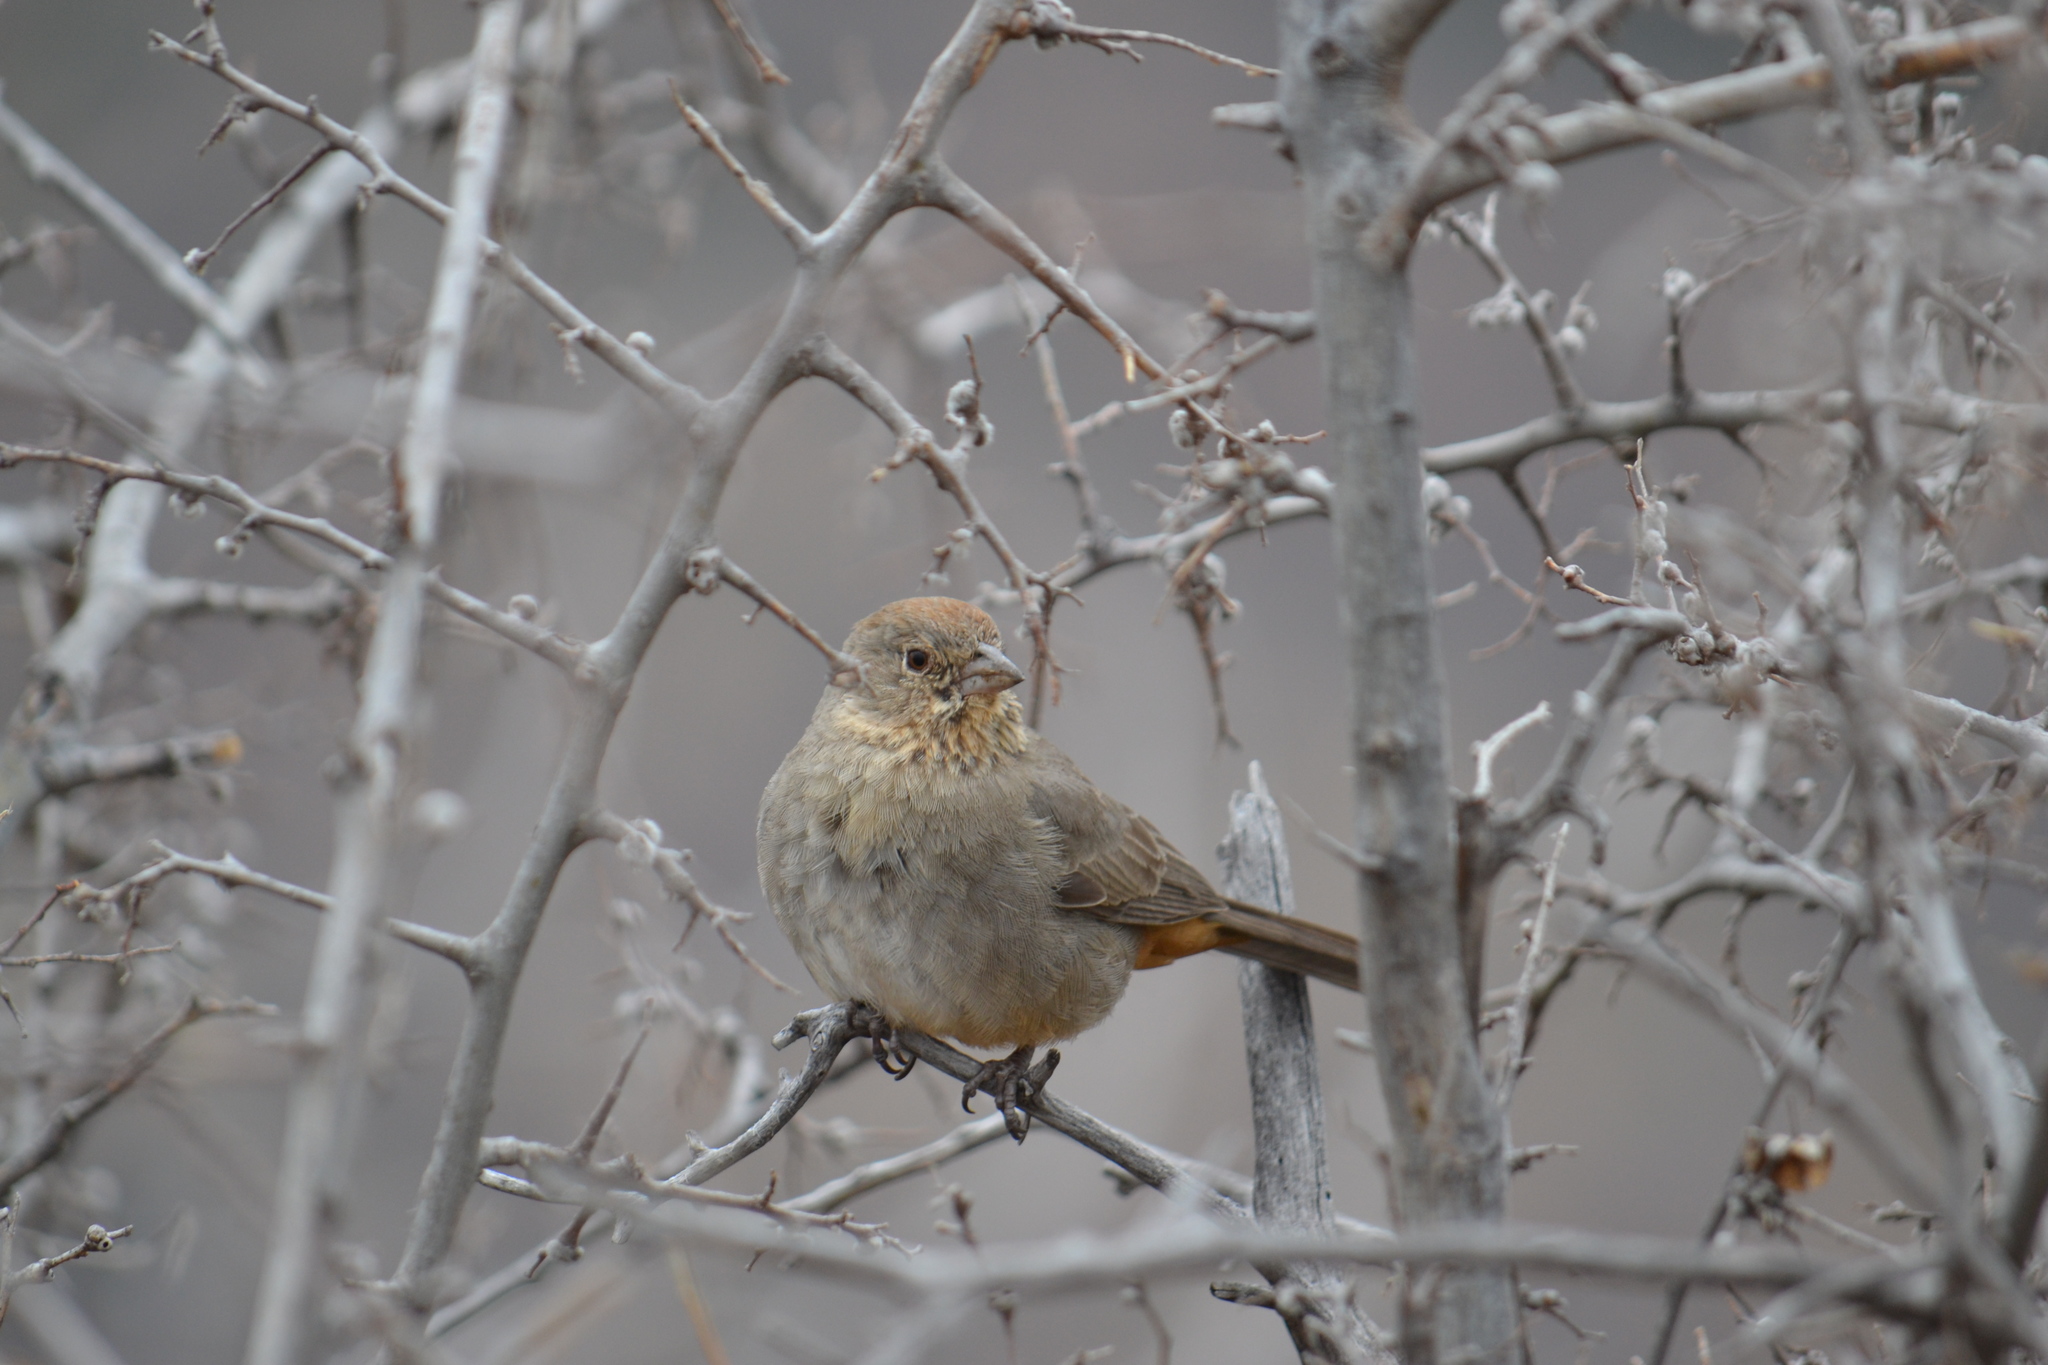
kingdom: Animalia
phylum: Chordata
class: Aves
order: Passeriformes
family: Passerellidae
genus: Melozone
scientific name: Melozone fusca
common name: Canyon towhee
